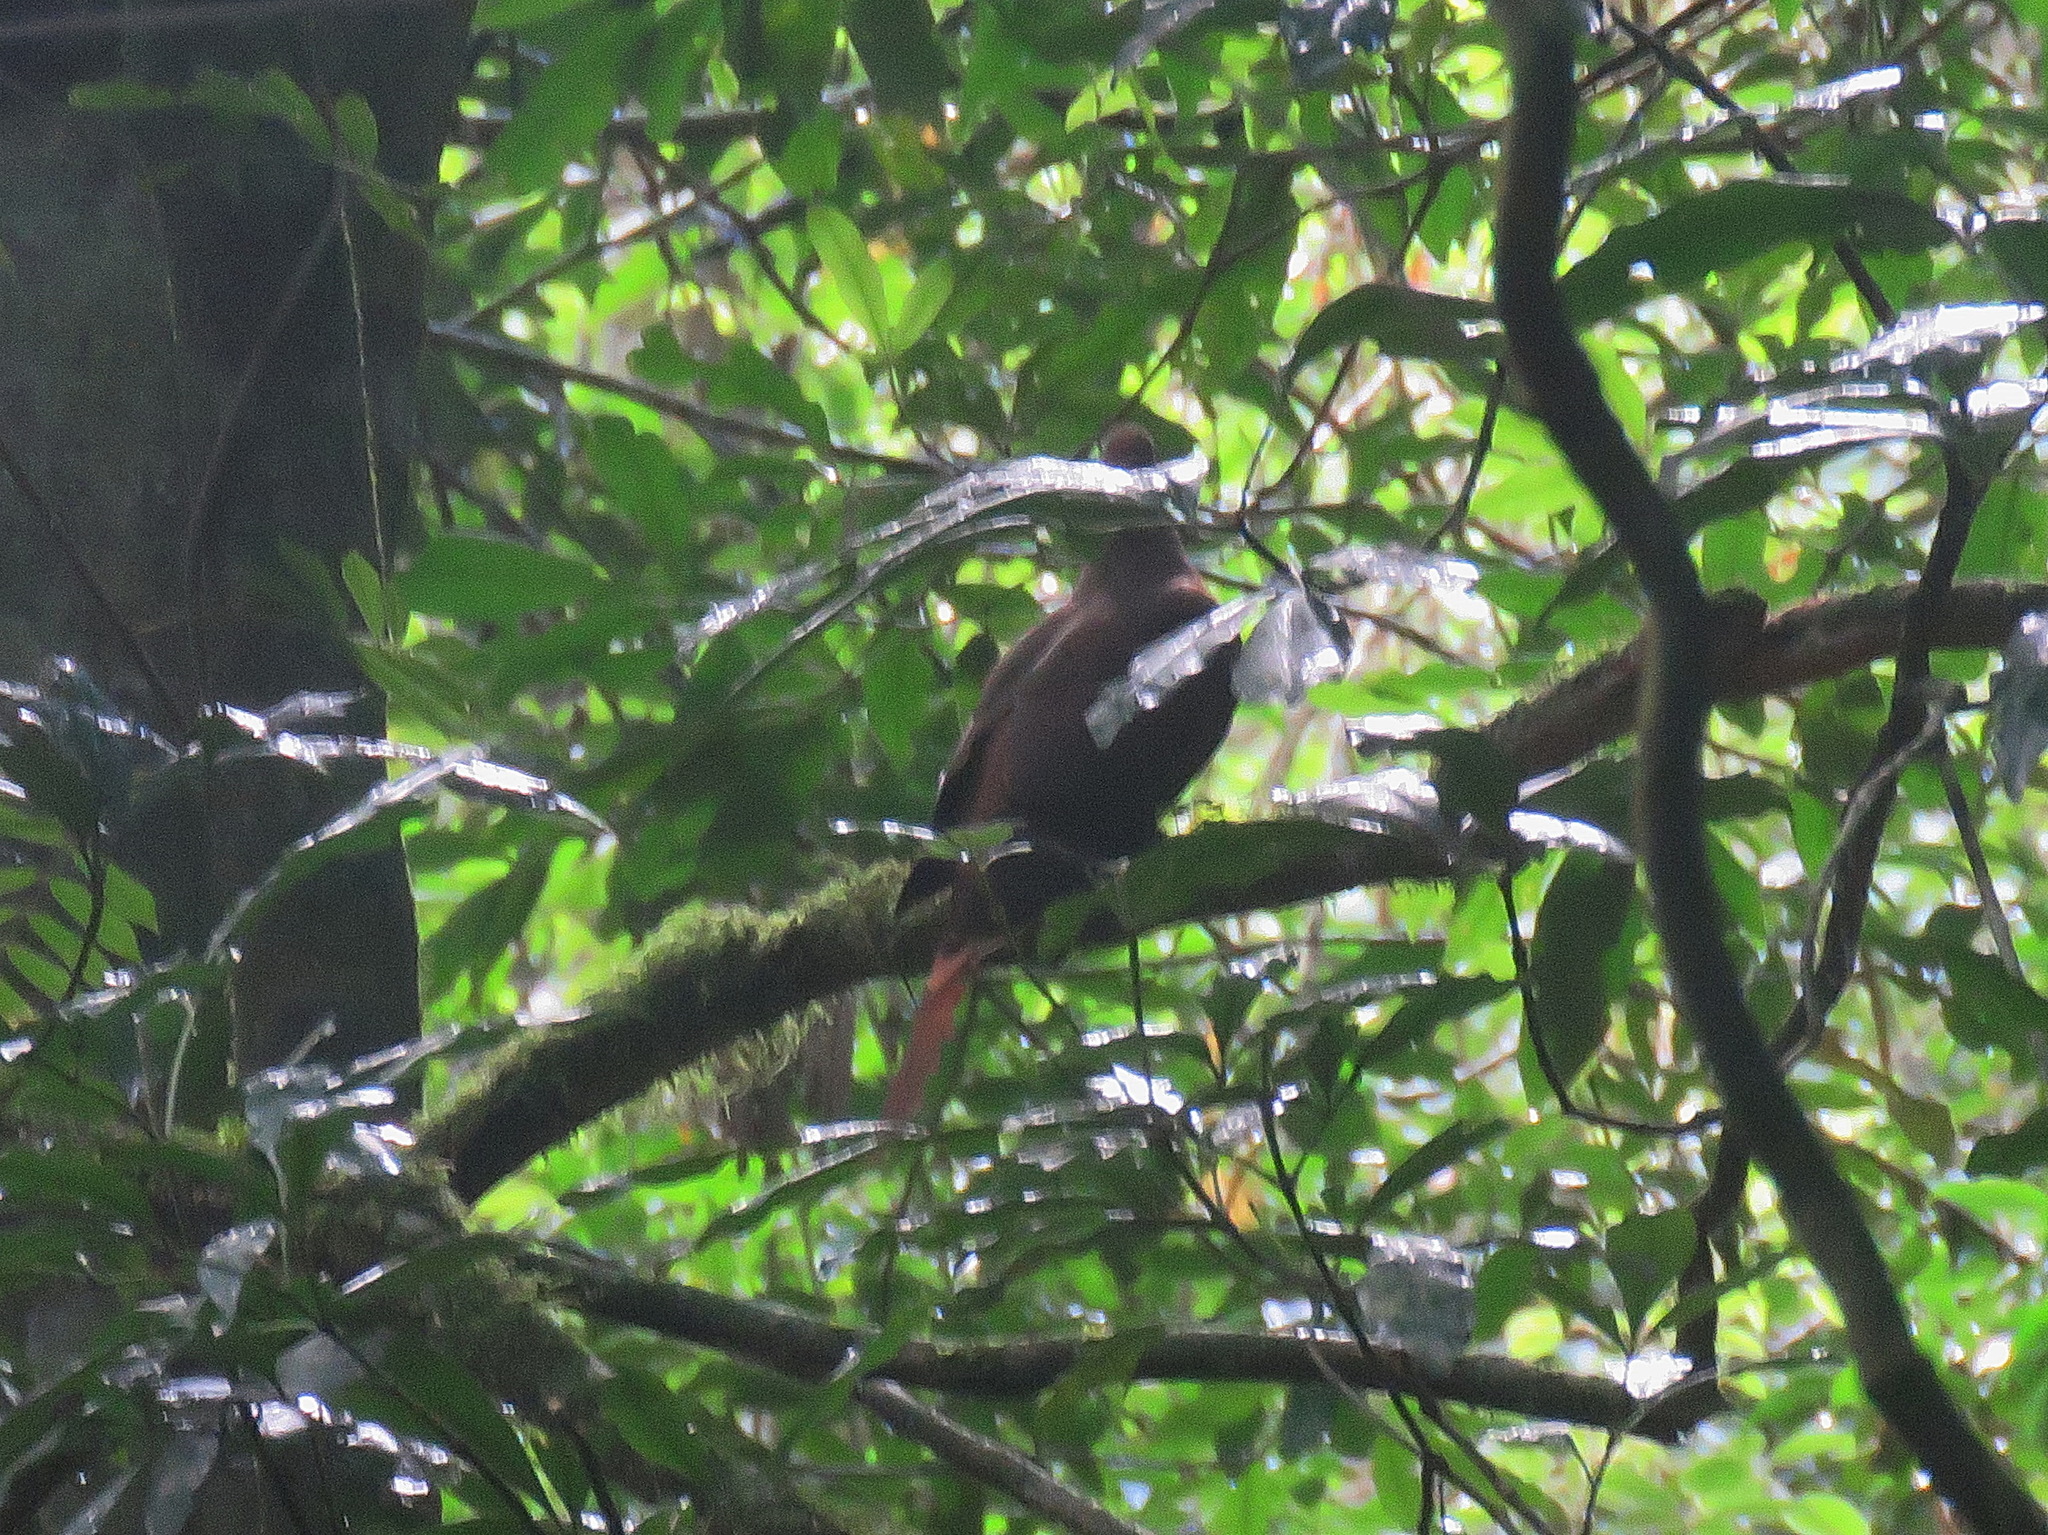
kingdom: Animalia
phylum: Chordata
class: Aves
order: Columbiformes
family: Columbidae
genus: Macropygia
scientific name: Macropygia phasianella
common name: Brown cuckoo-dove
